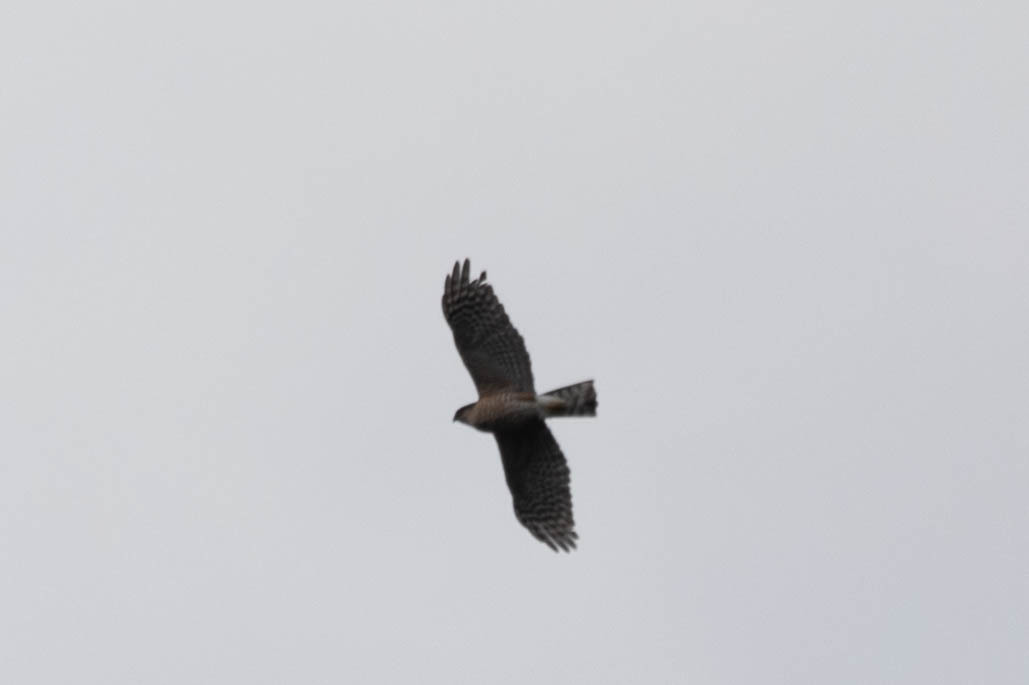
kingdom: Animalia
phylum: Chordata
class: Aves
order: Accipitriformes
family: Accipitridae
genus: Accipiter
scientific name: Accipiter striatus
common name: Sharp-shinned hawk
